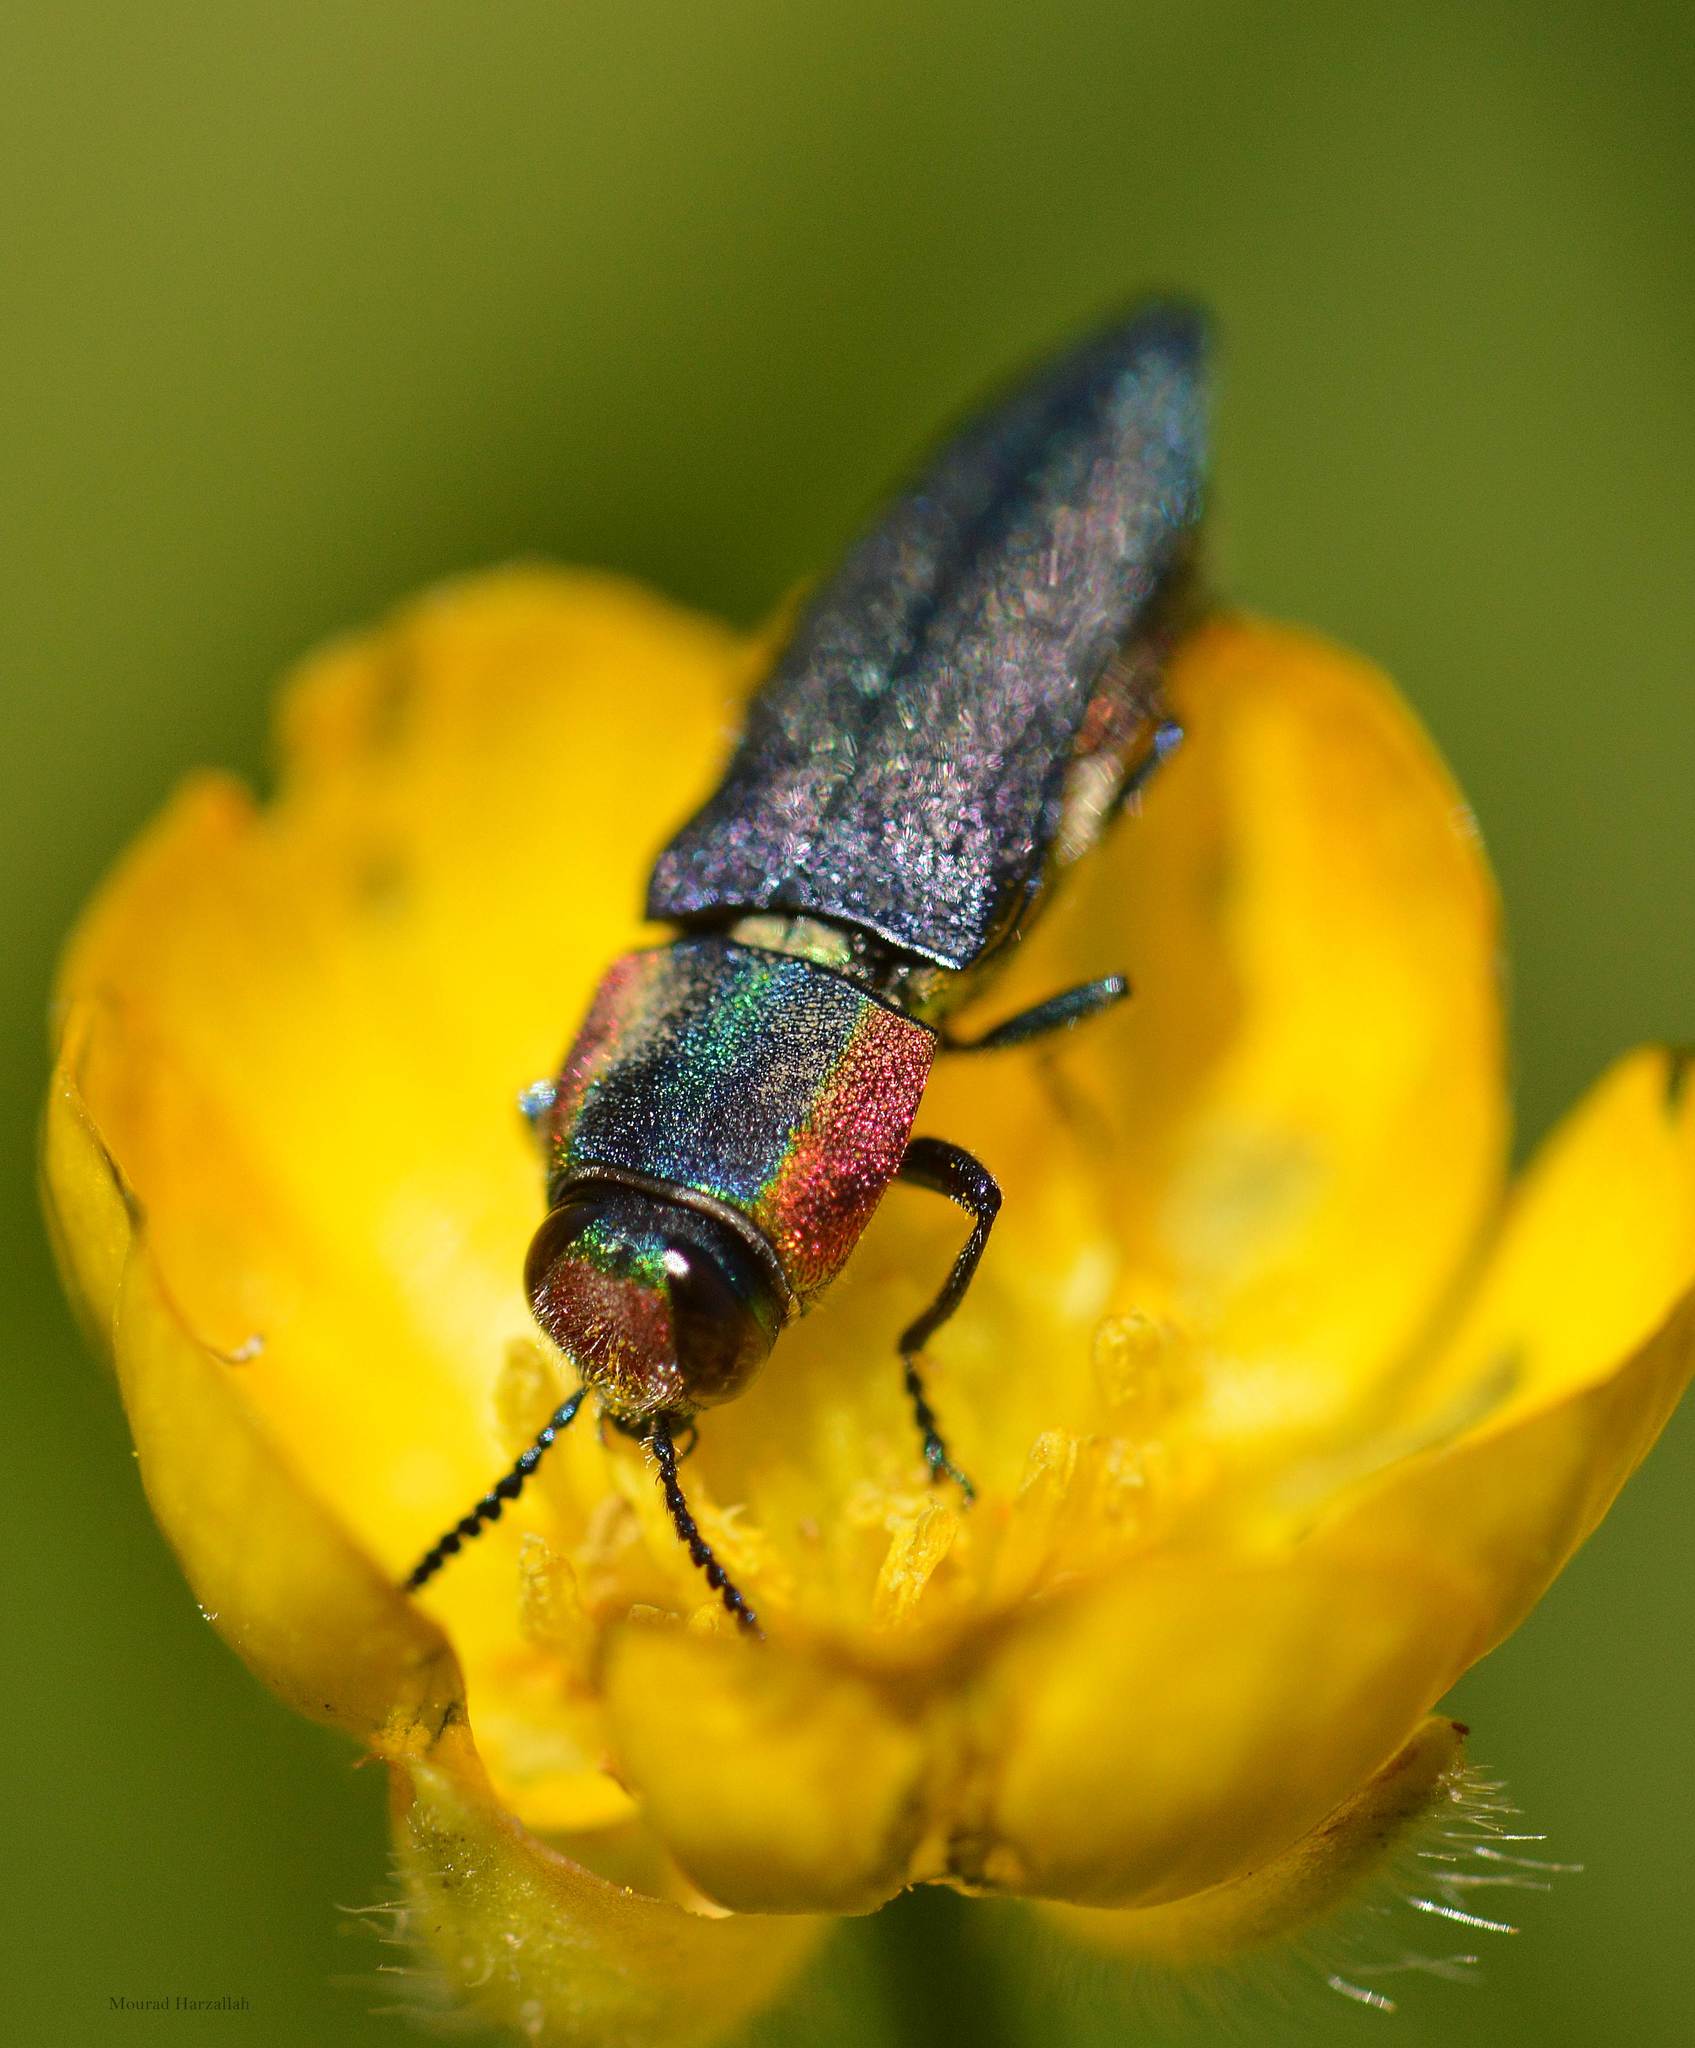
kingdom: Animalia
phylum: Arthropoda
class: Insecta
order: Coleoptera
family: Buprestidae
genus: Anthaxia
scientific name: Anthaxia hungarica
